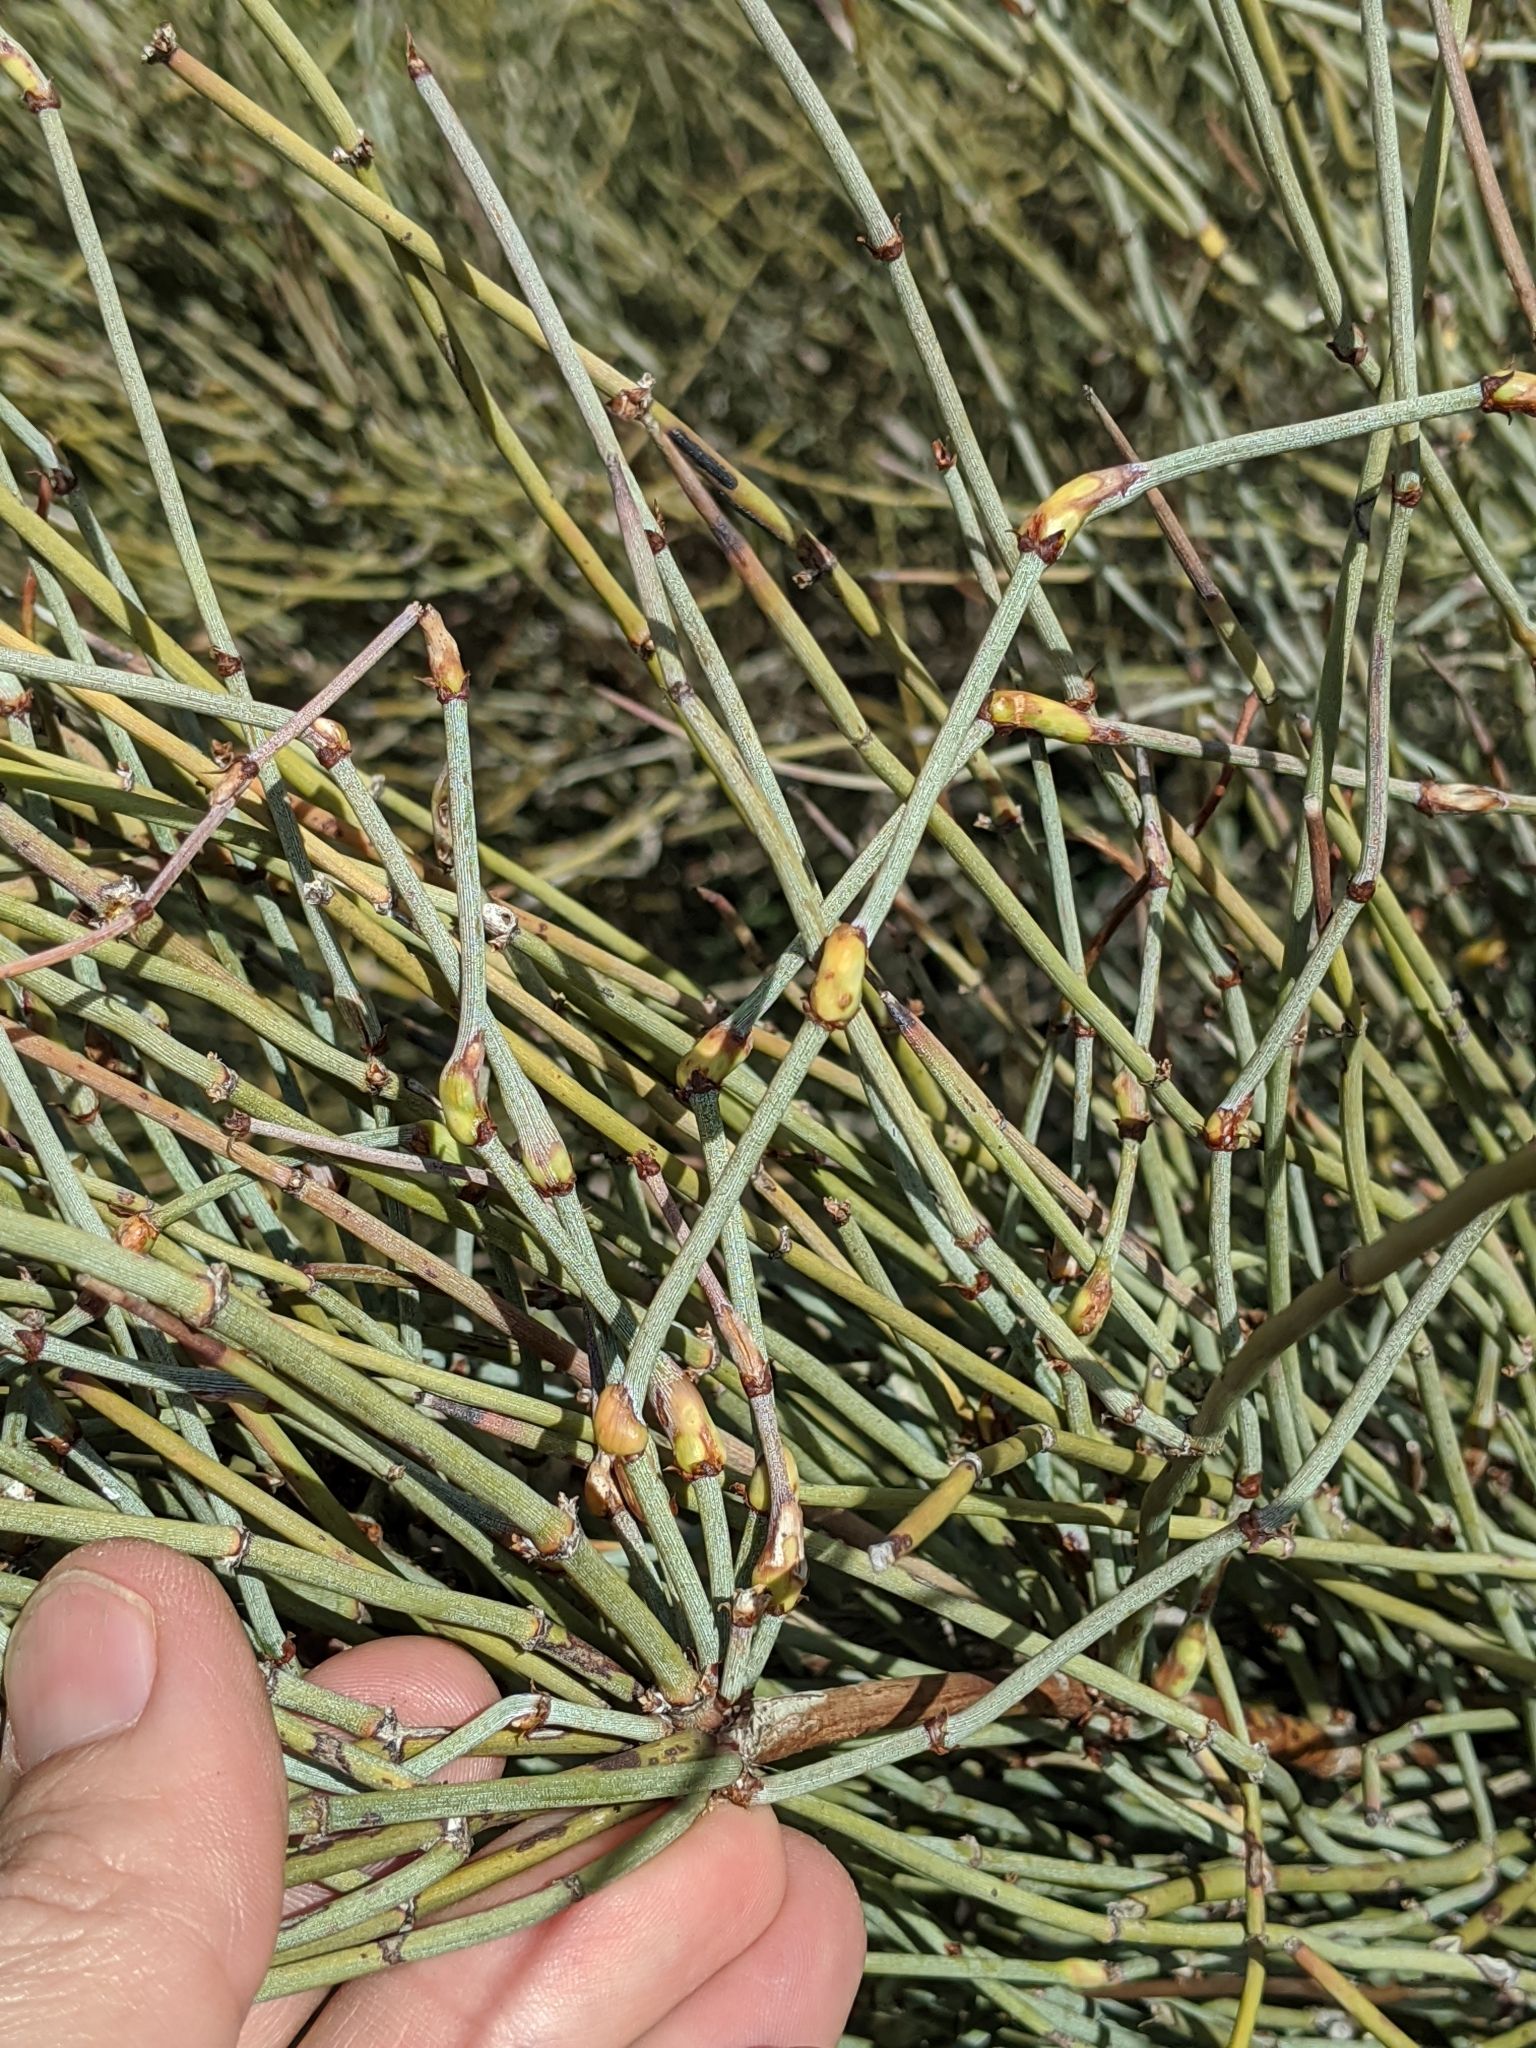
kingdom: Animalia
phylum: Arthropoda
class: Insecta
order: Diptera
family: Cecidomyiidae
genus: Lasioptera
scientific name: Lasioptera ephedrae
